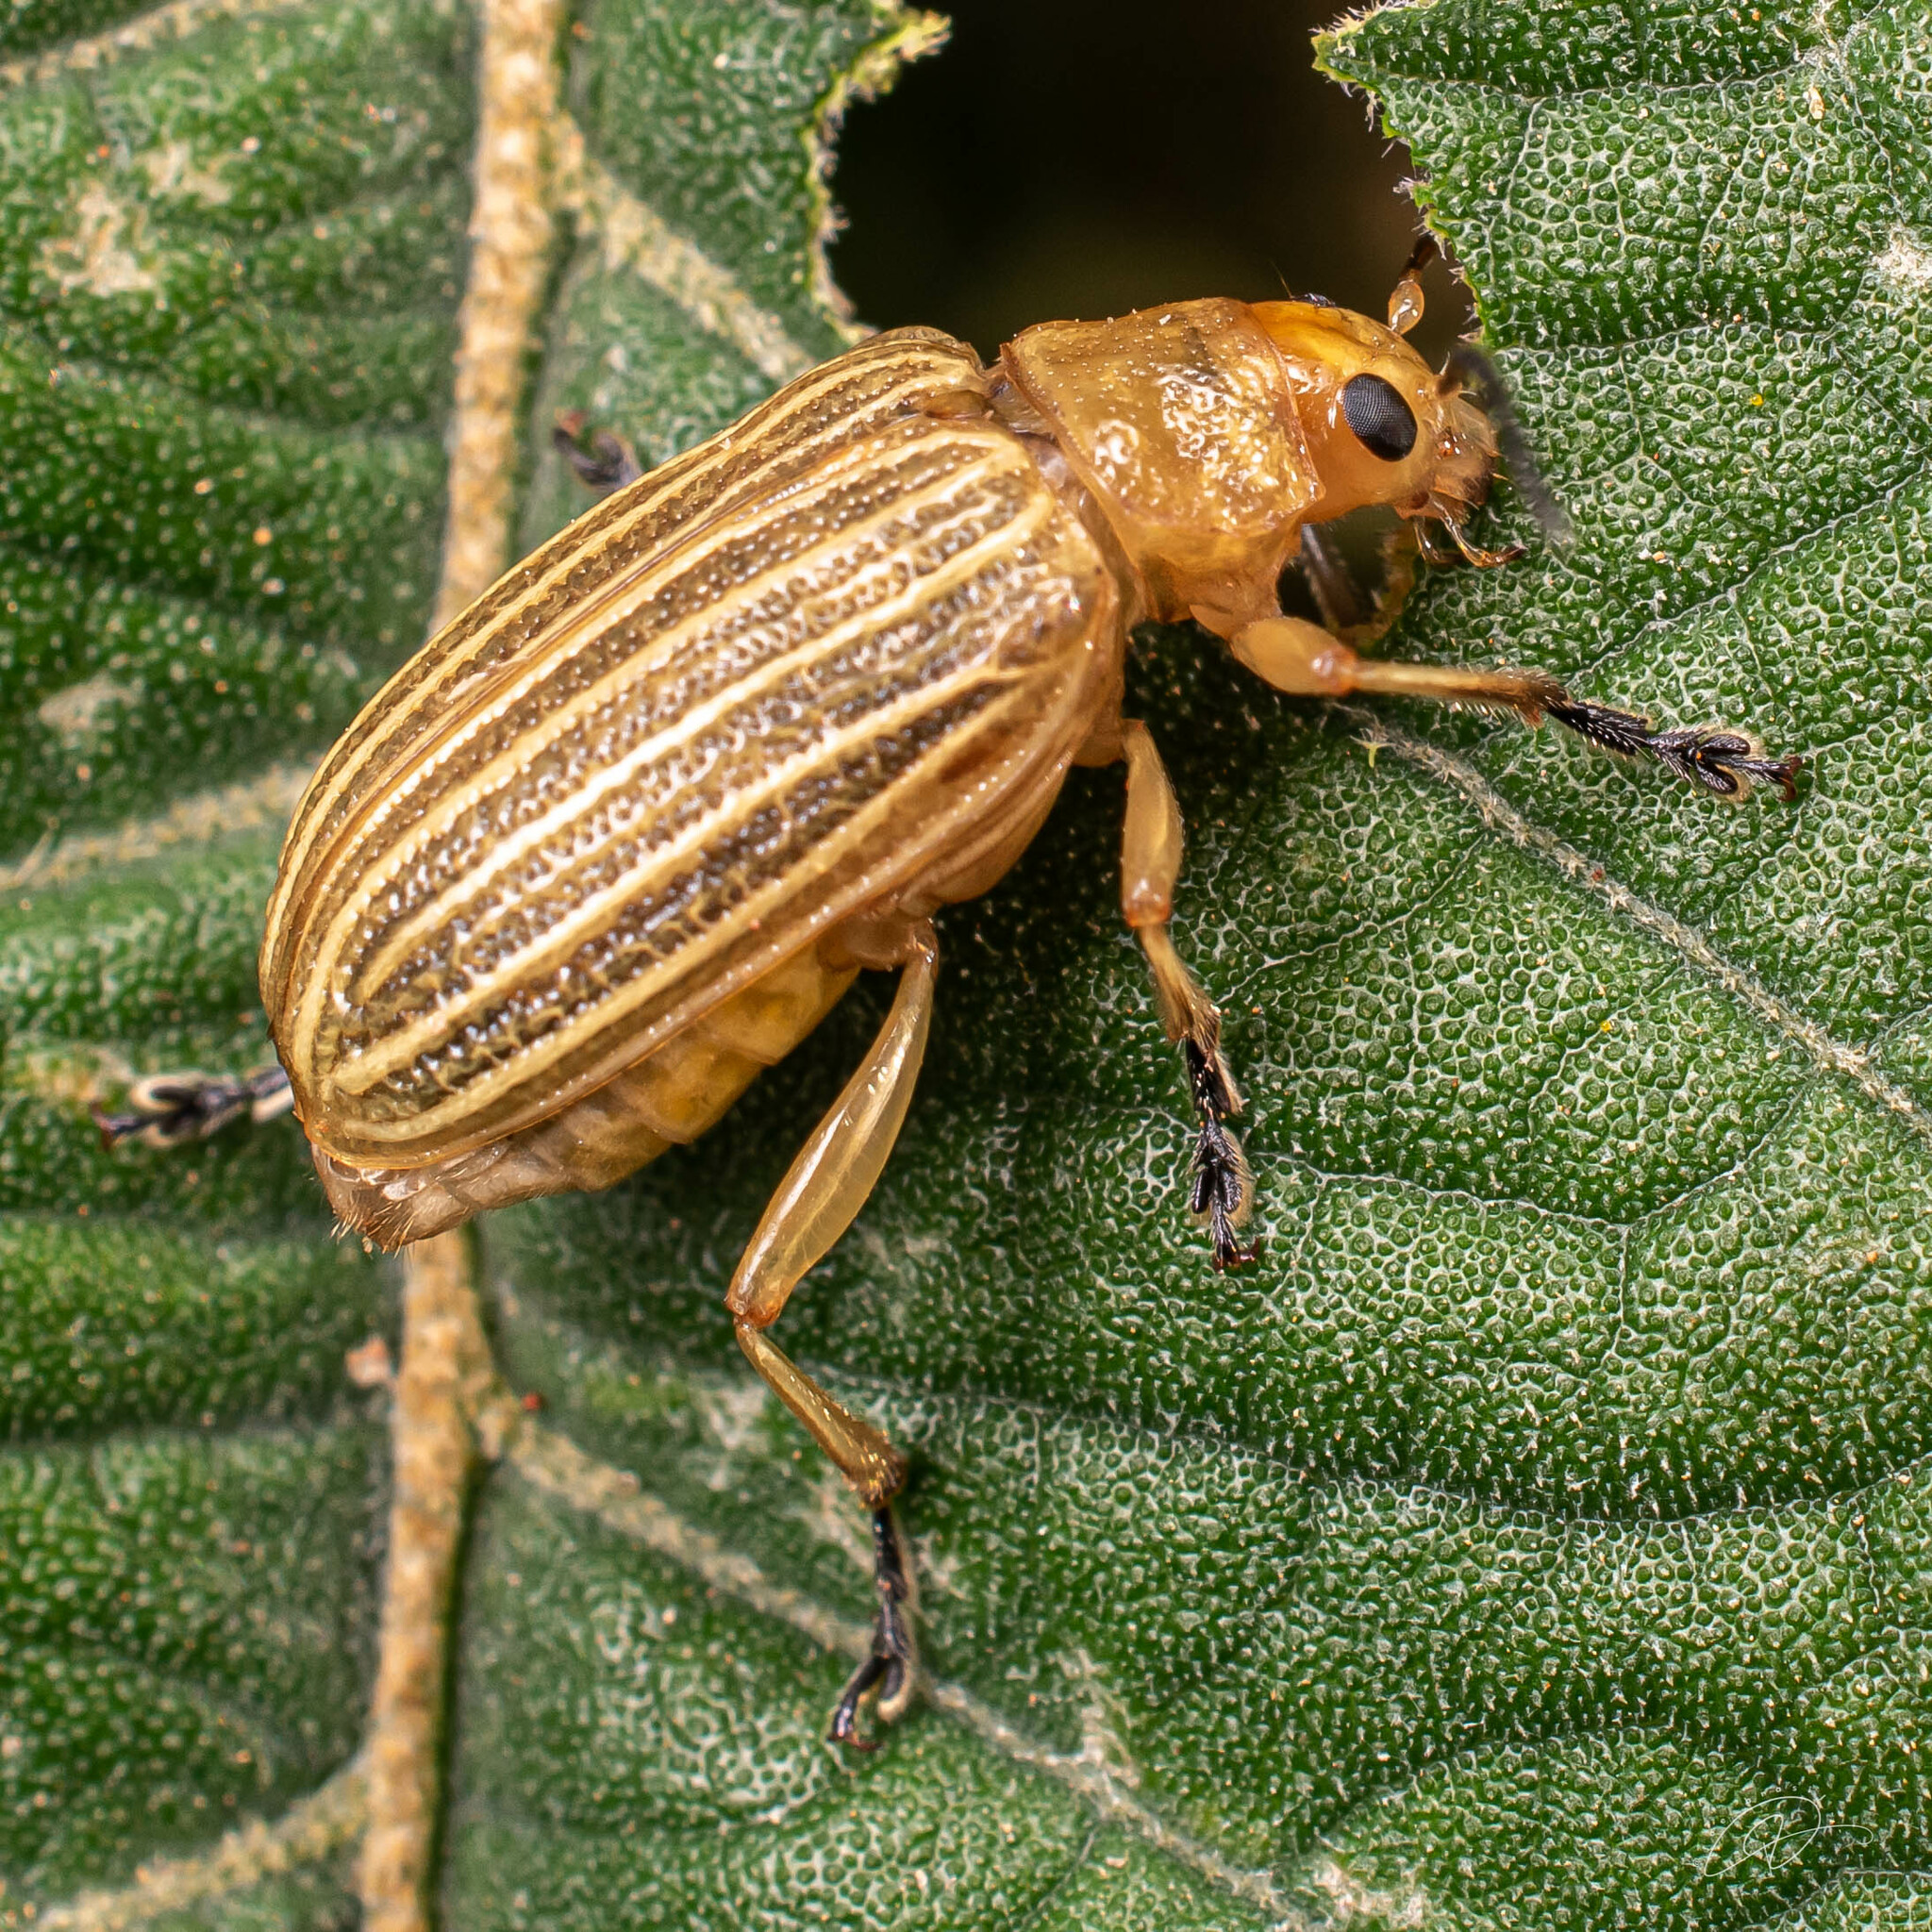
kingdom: Animalia
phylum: Arthropoda
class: Insecta
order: Coleoptera
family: Chrysomelidae
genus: Metaxyonycha
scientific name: Metaxyonycha
